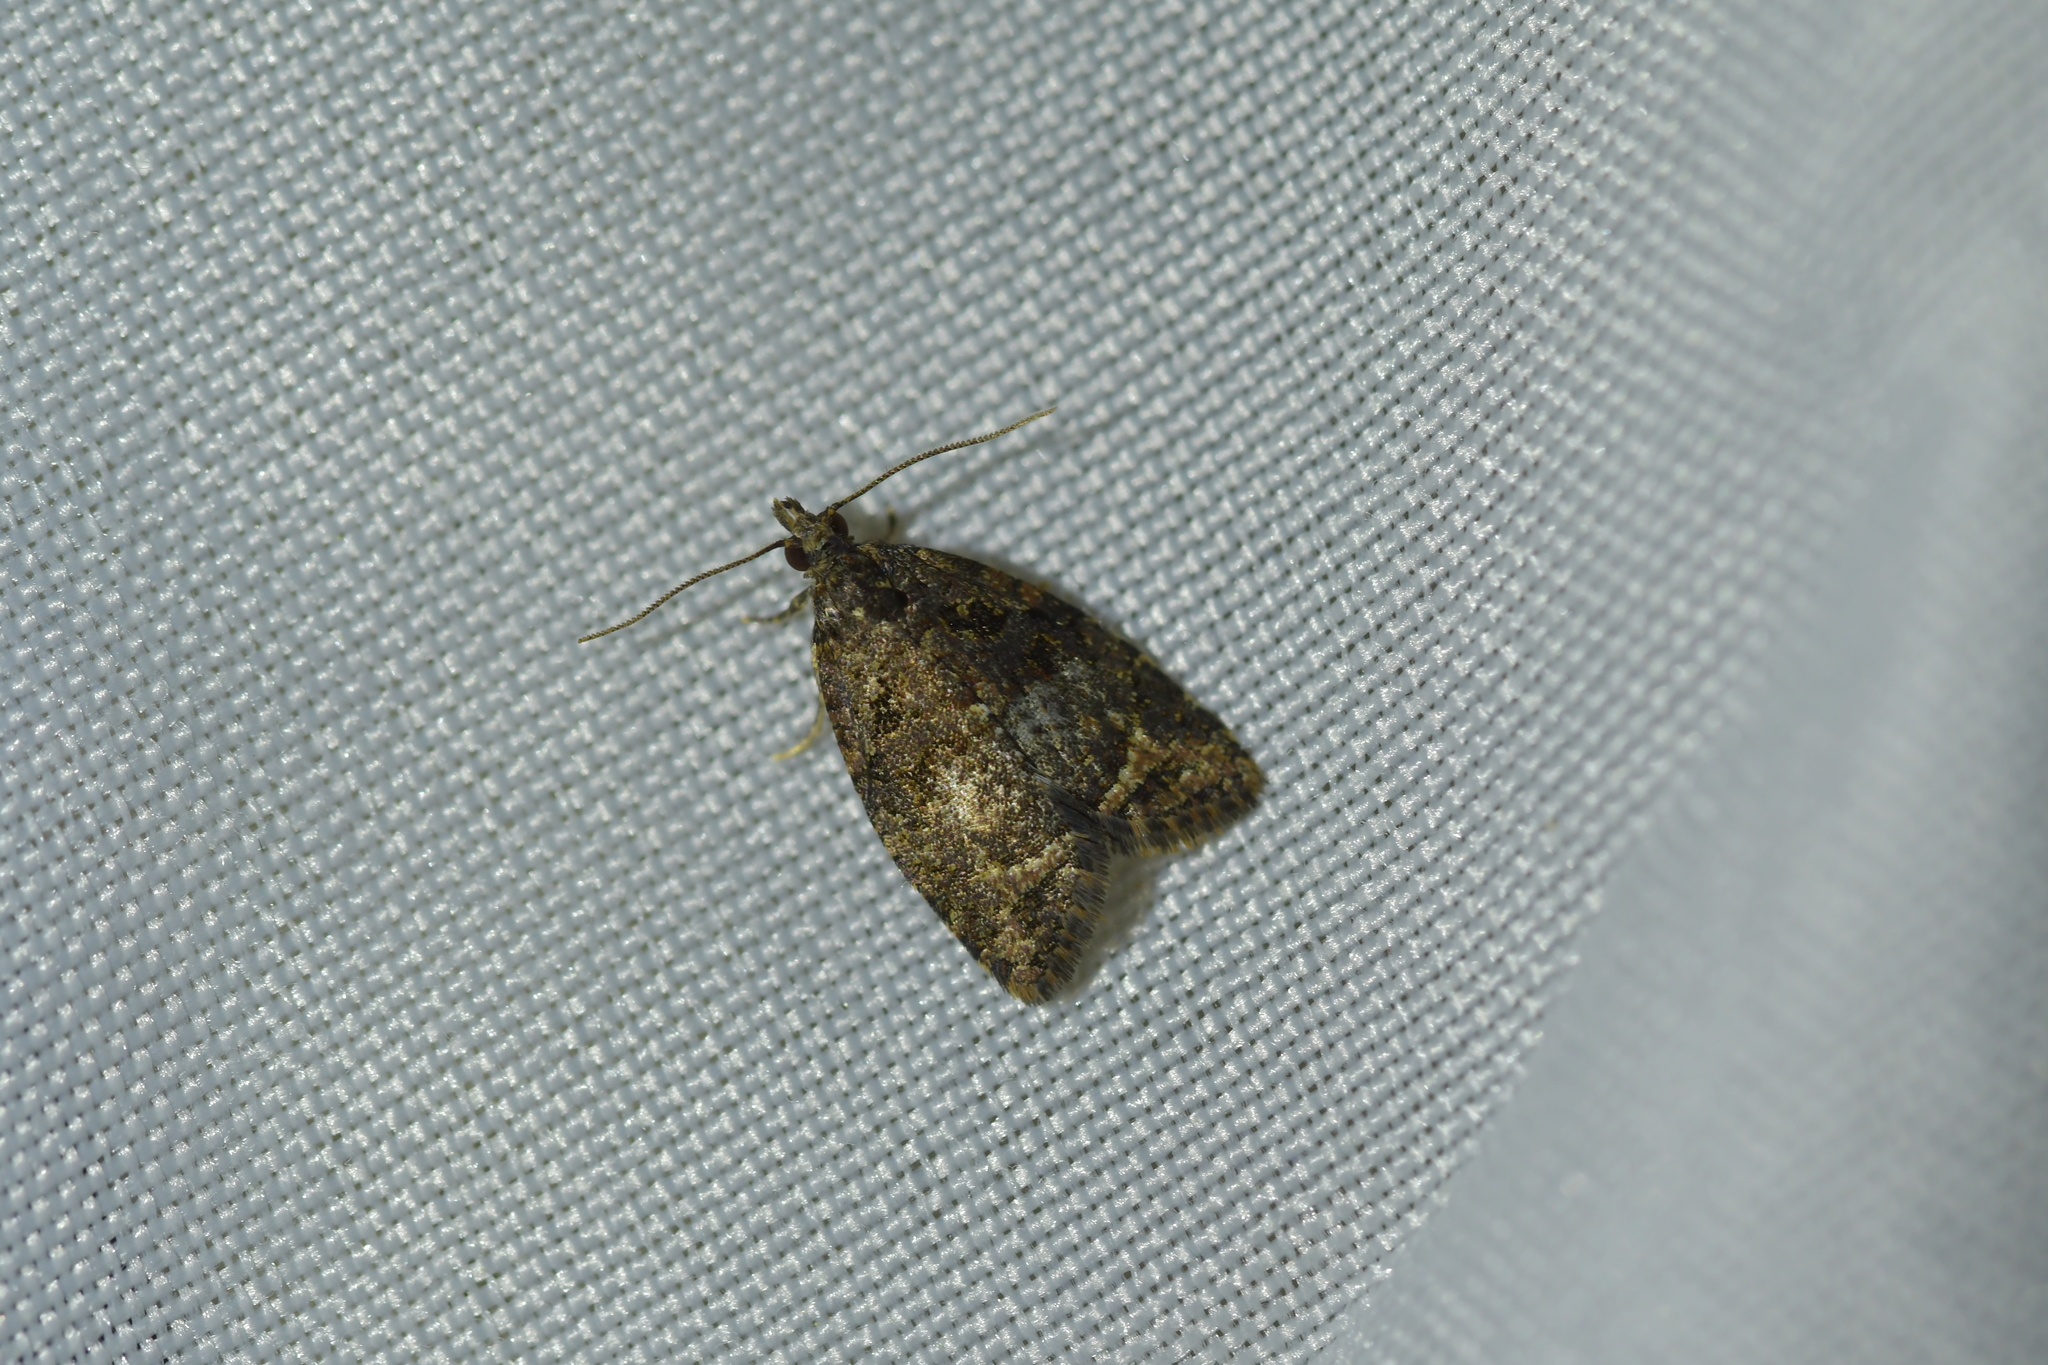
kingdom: Animalia
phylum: Arthropoda
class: Insecta
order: Lepidoptera
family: Tortricidae
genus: Capua
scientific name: Capua intractana
